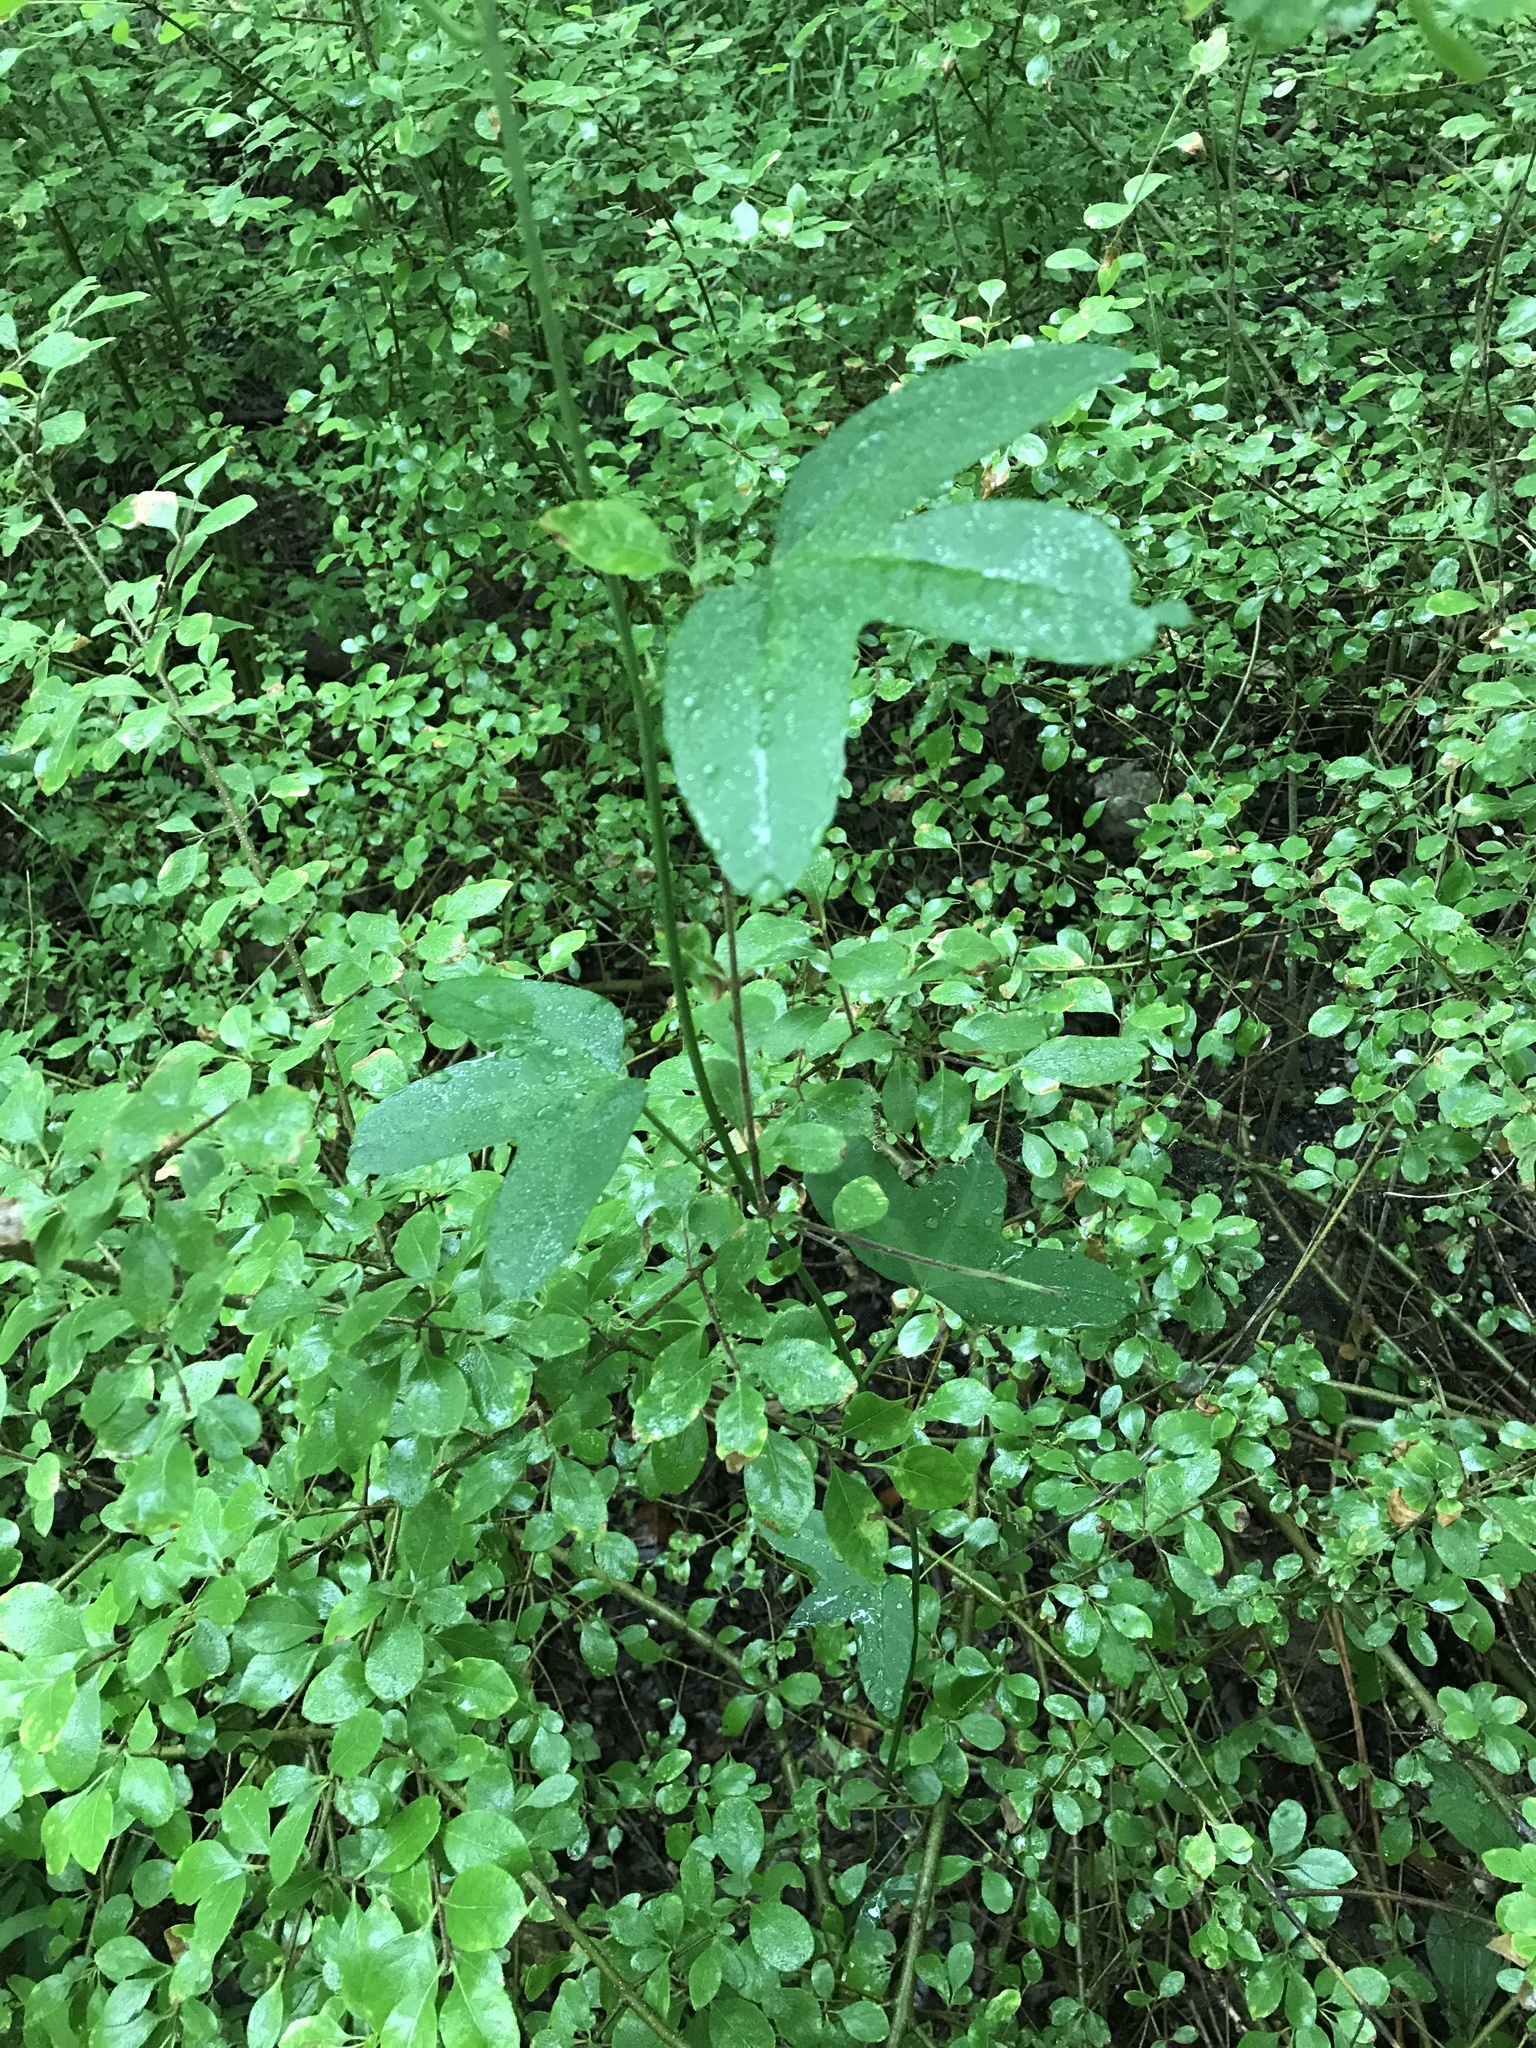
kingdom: Plantae
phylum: Tracheophyta
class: Magnoliopsida
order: Malpighiales
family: Passifloraceae
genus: Passiflora
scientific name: Passiflora lutea
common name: Yellow passionflower
